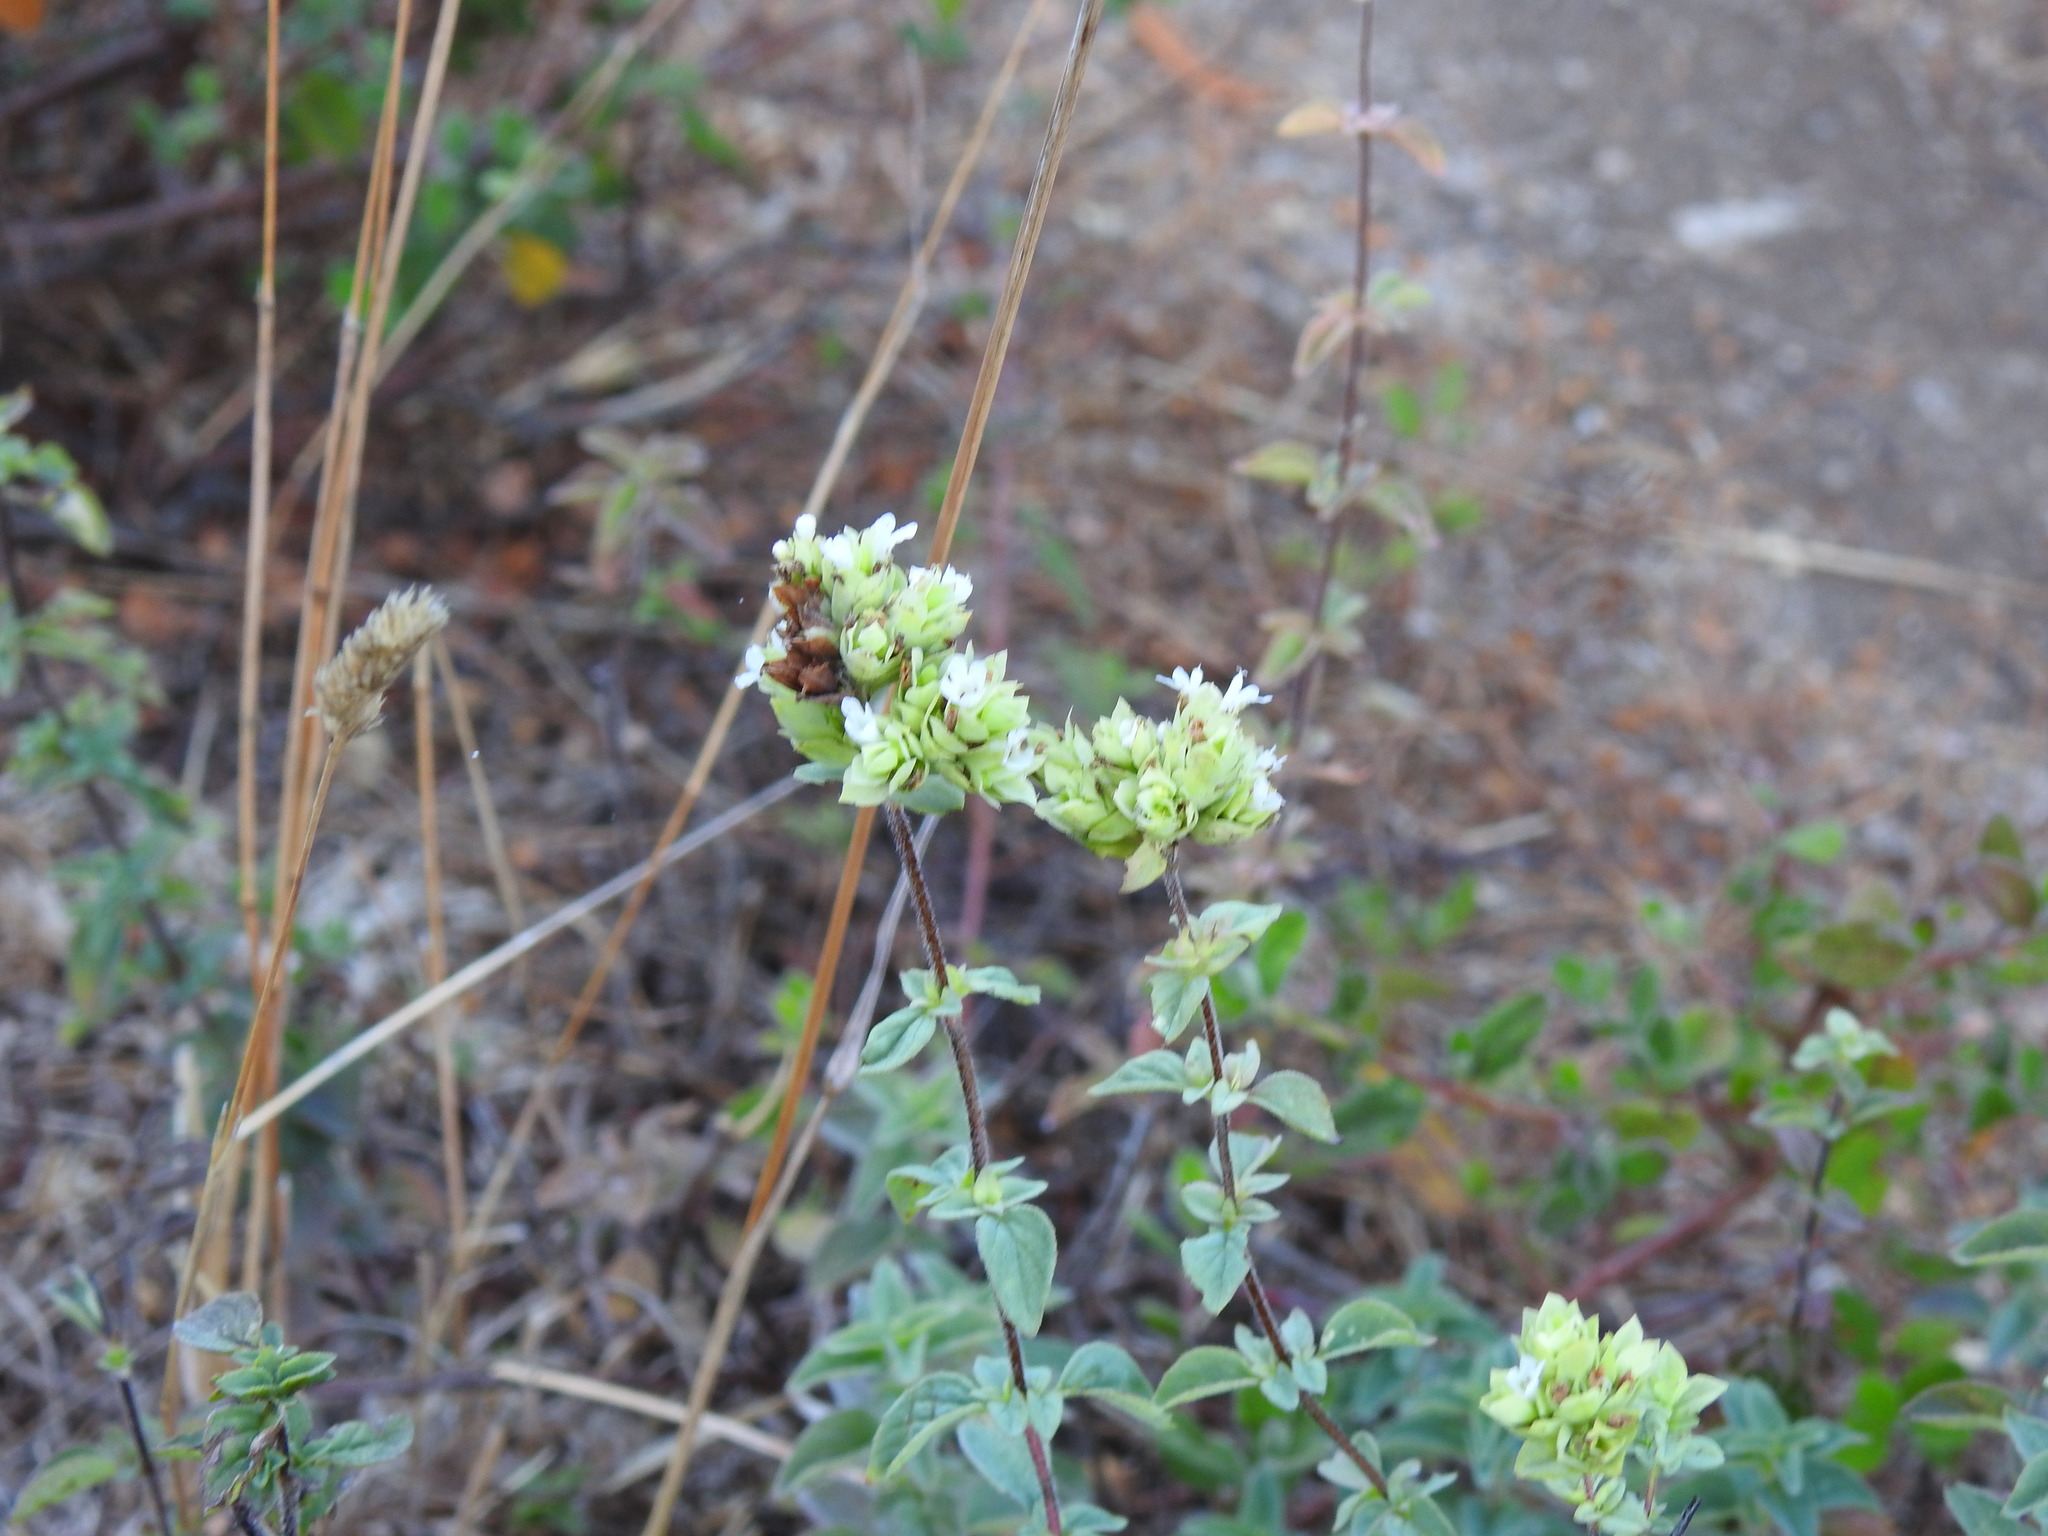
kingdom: Plantae
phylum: Tracheophyta
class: Magnoliopsida
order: Lamiales
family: Lamiaceae
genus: Origanum
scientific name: Origanum vulgare
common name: Wild marjoram
